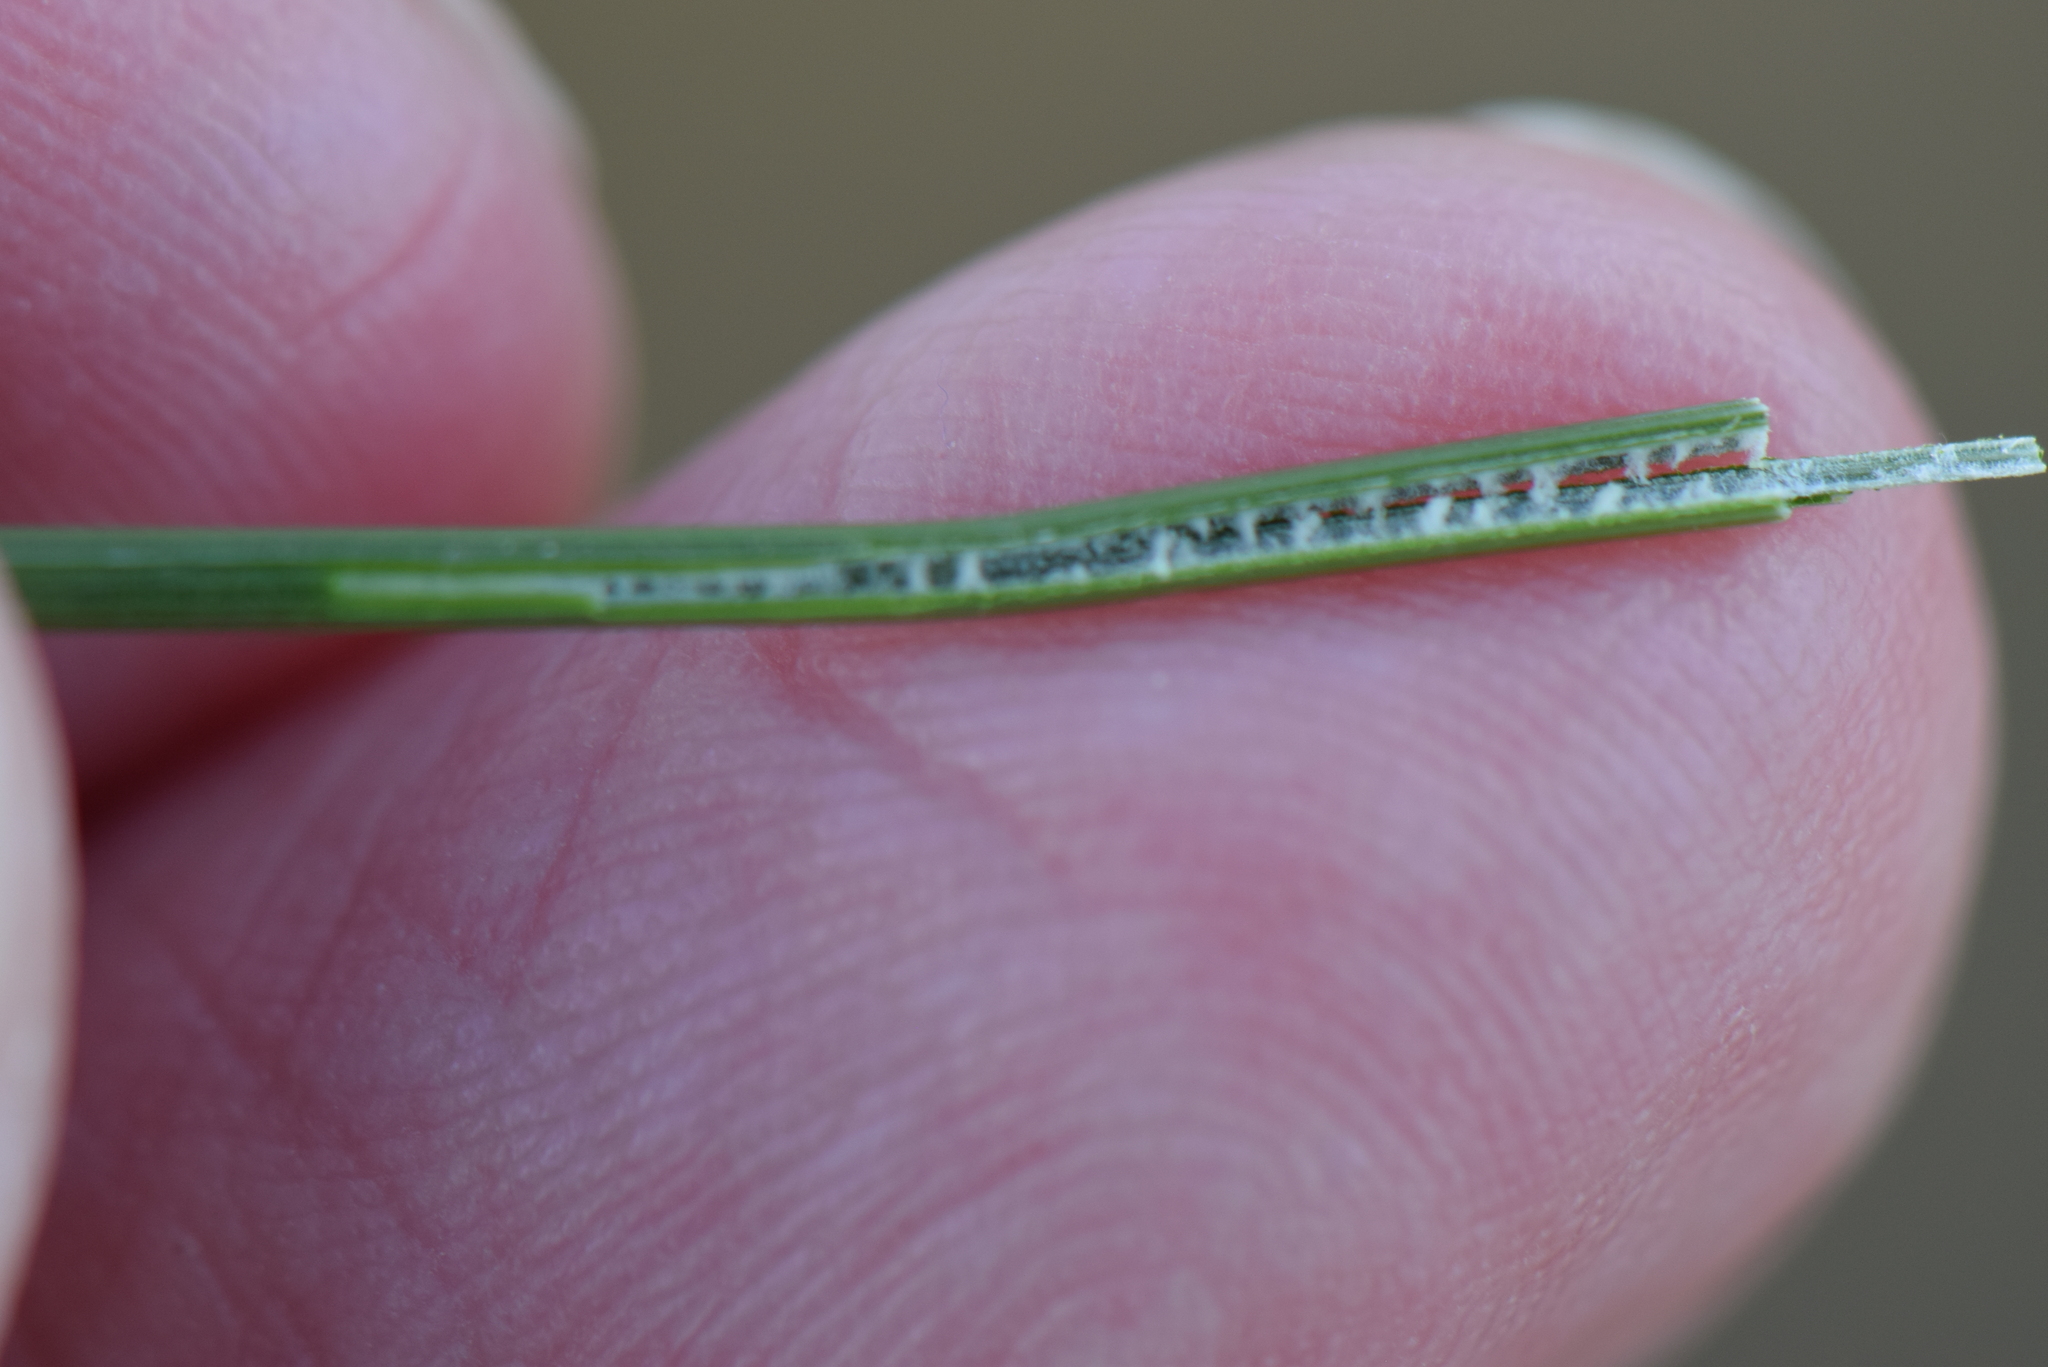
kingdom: Plantae
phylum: Tracheophyta
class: Liliopsida
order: Poales
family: Juncaceae
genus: Juncus
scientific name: Juncus inflexus
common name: Hard rush
